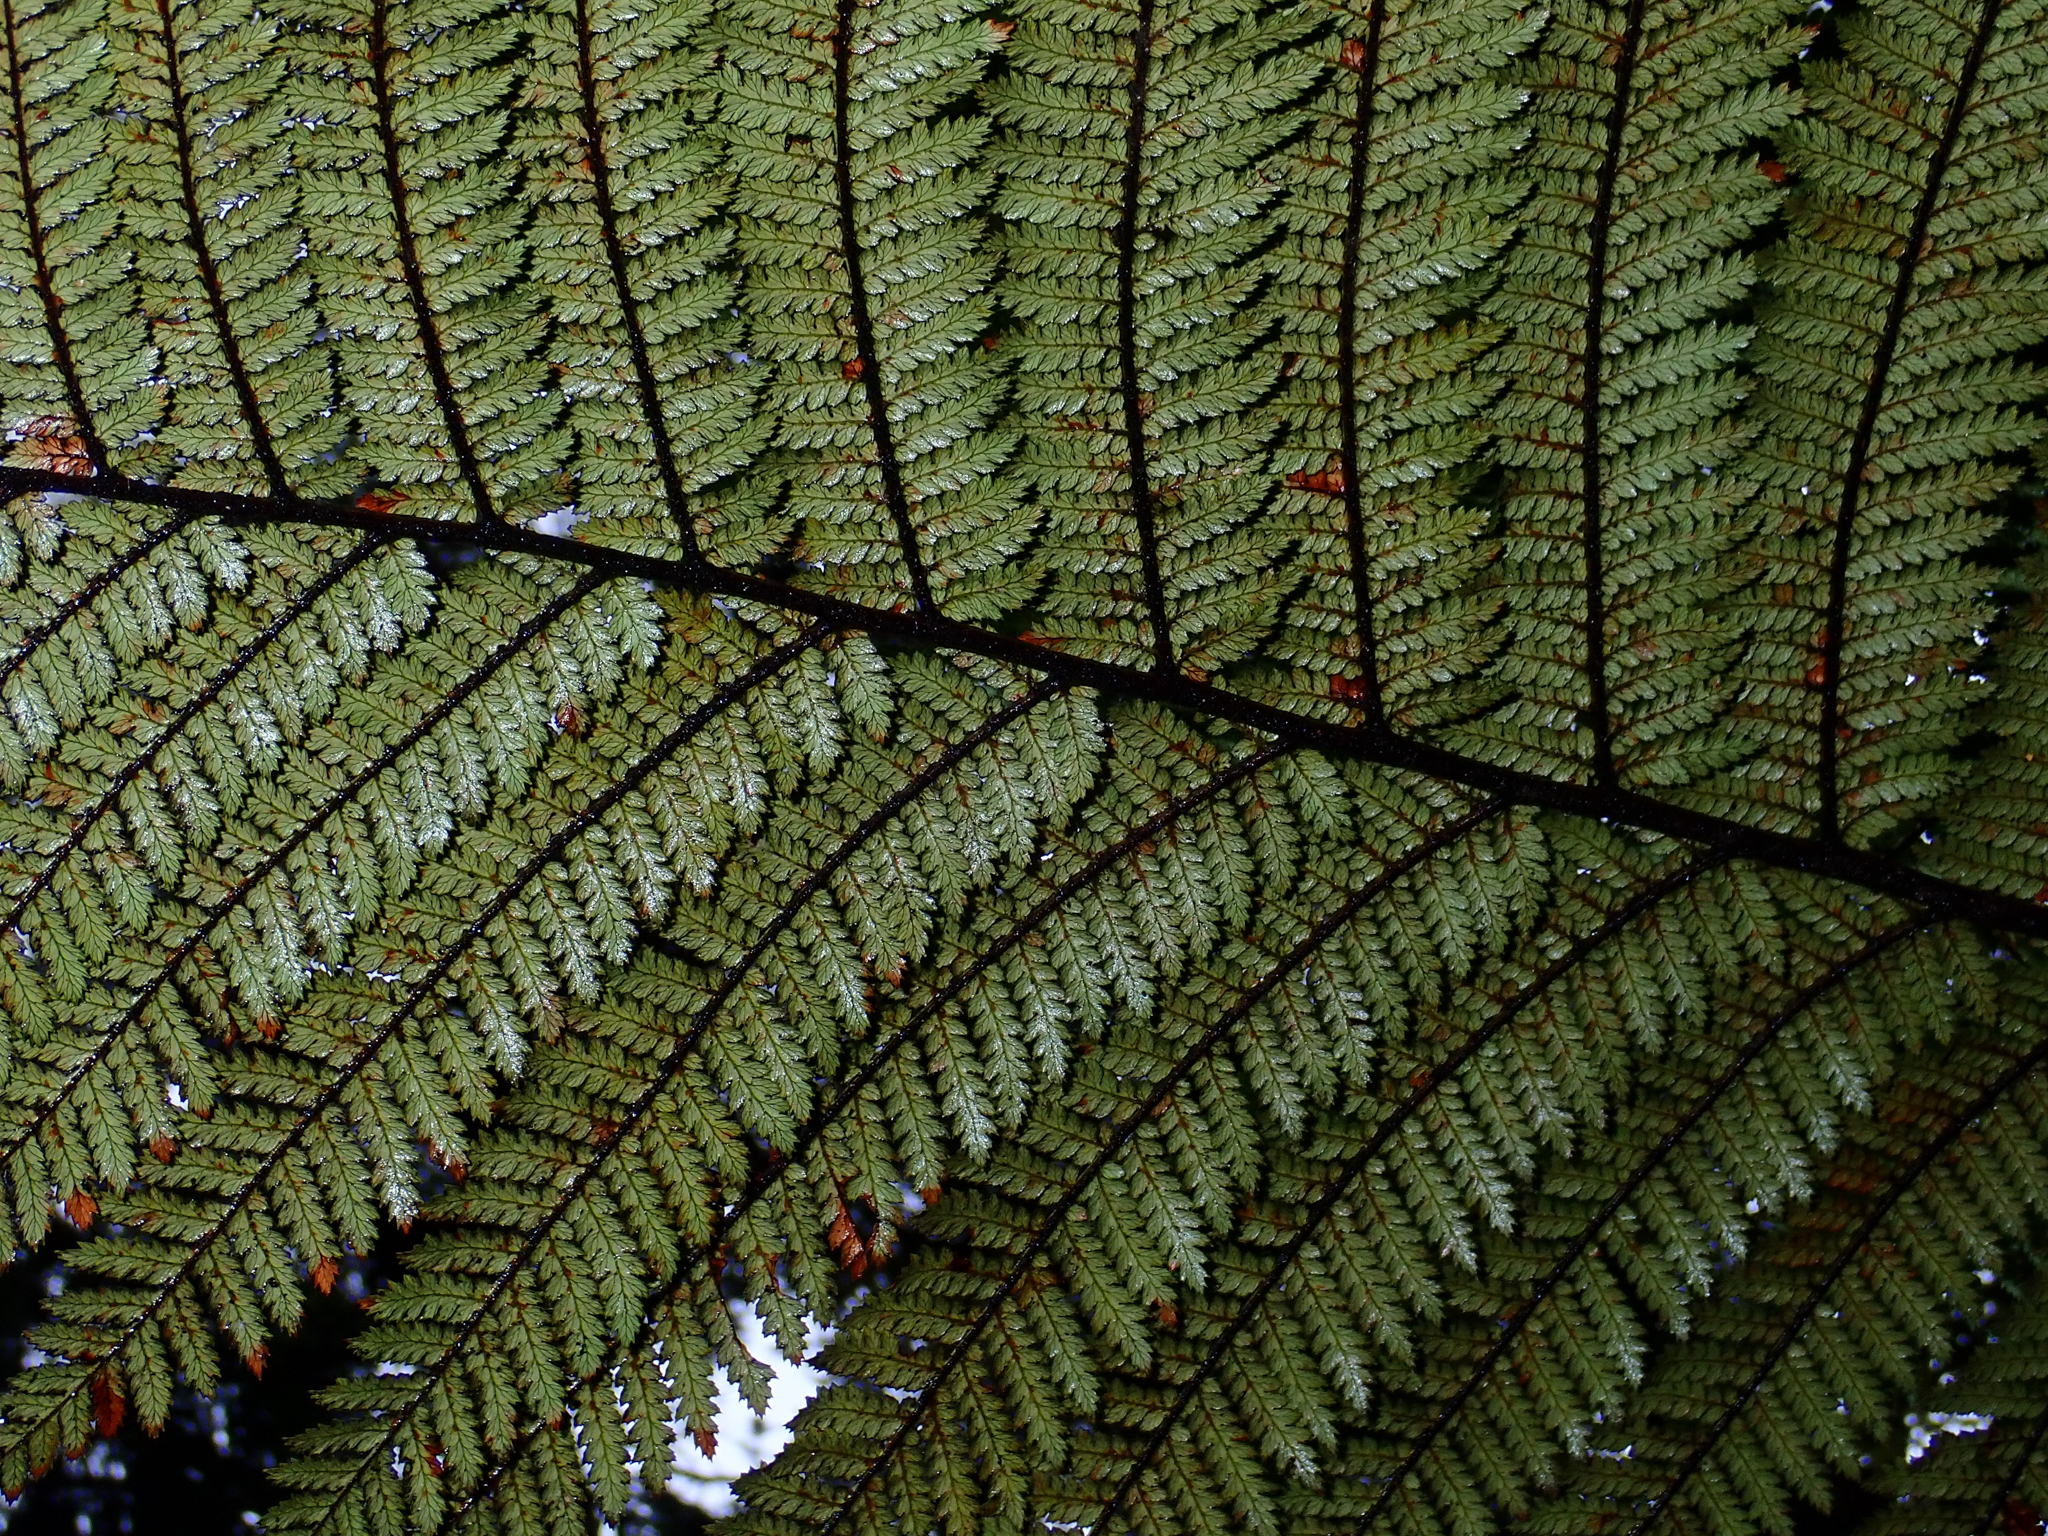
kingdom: Plantae
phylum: Tracheophyta
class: Polypodiopsida
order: Cyatheales
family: Dicksoniaceae
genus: Dicksonia
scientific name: Dicksonia squarrosa
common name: Hard treefern
